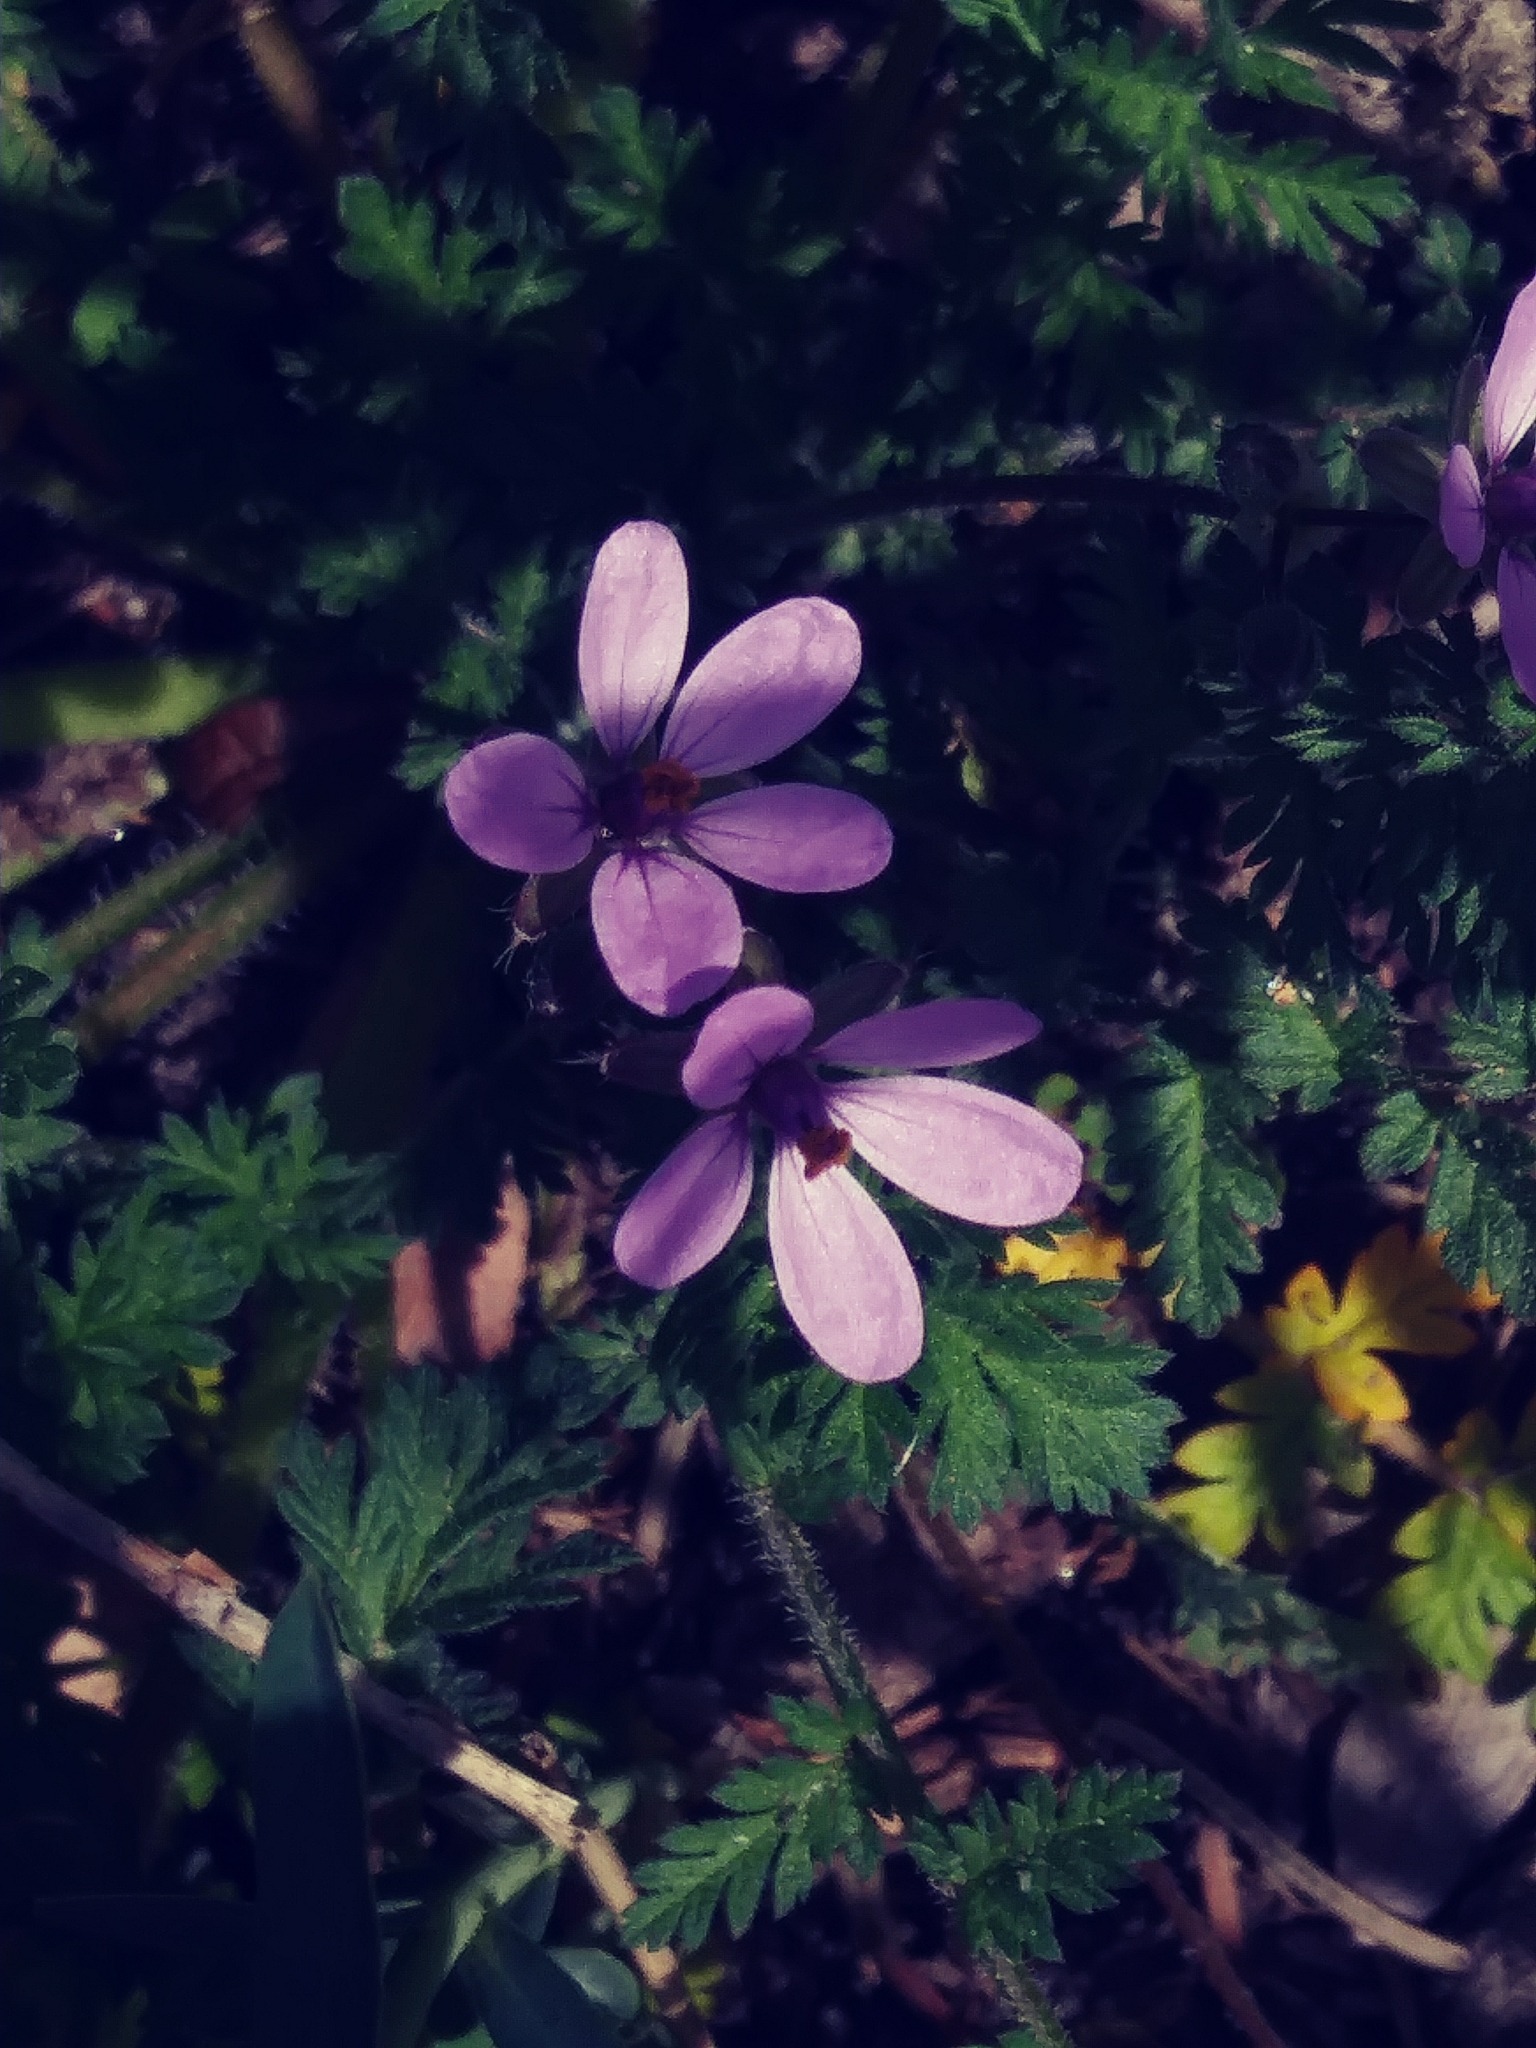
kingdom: Plantae
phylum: Tracheophyta
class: Magnoliopsida
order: Geraniales
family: Geraniaceae
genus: Erodium
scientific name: Erodium cicutarium
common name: Common stork's-bill
